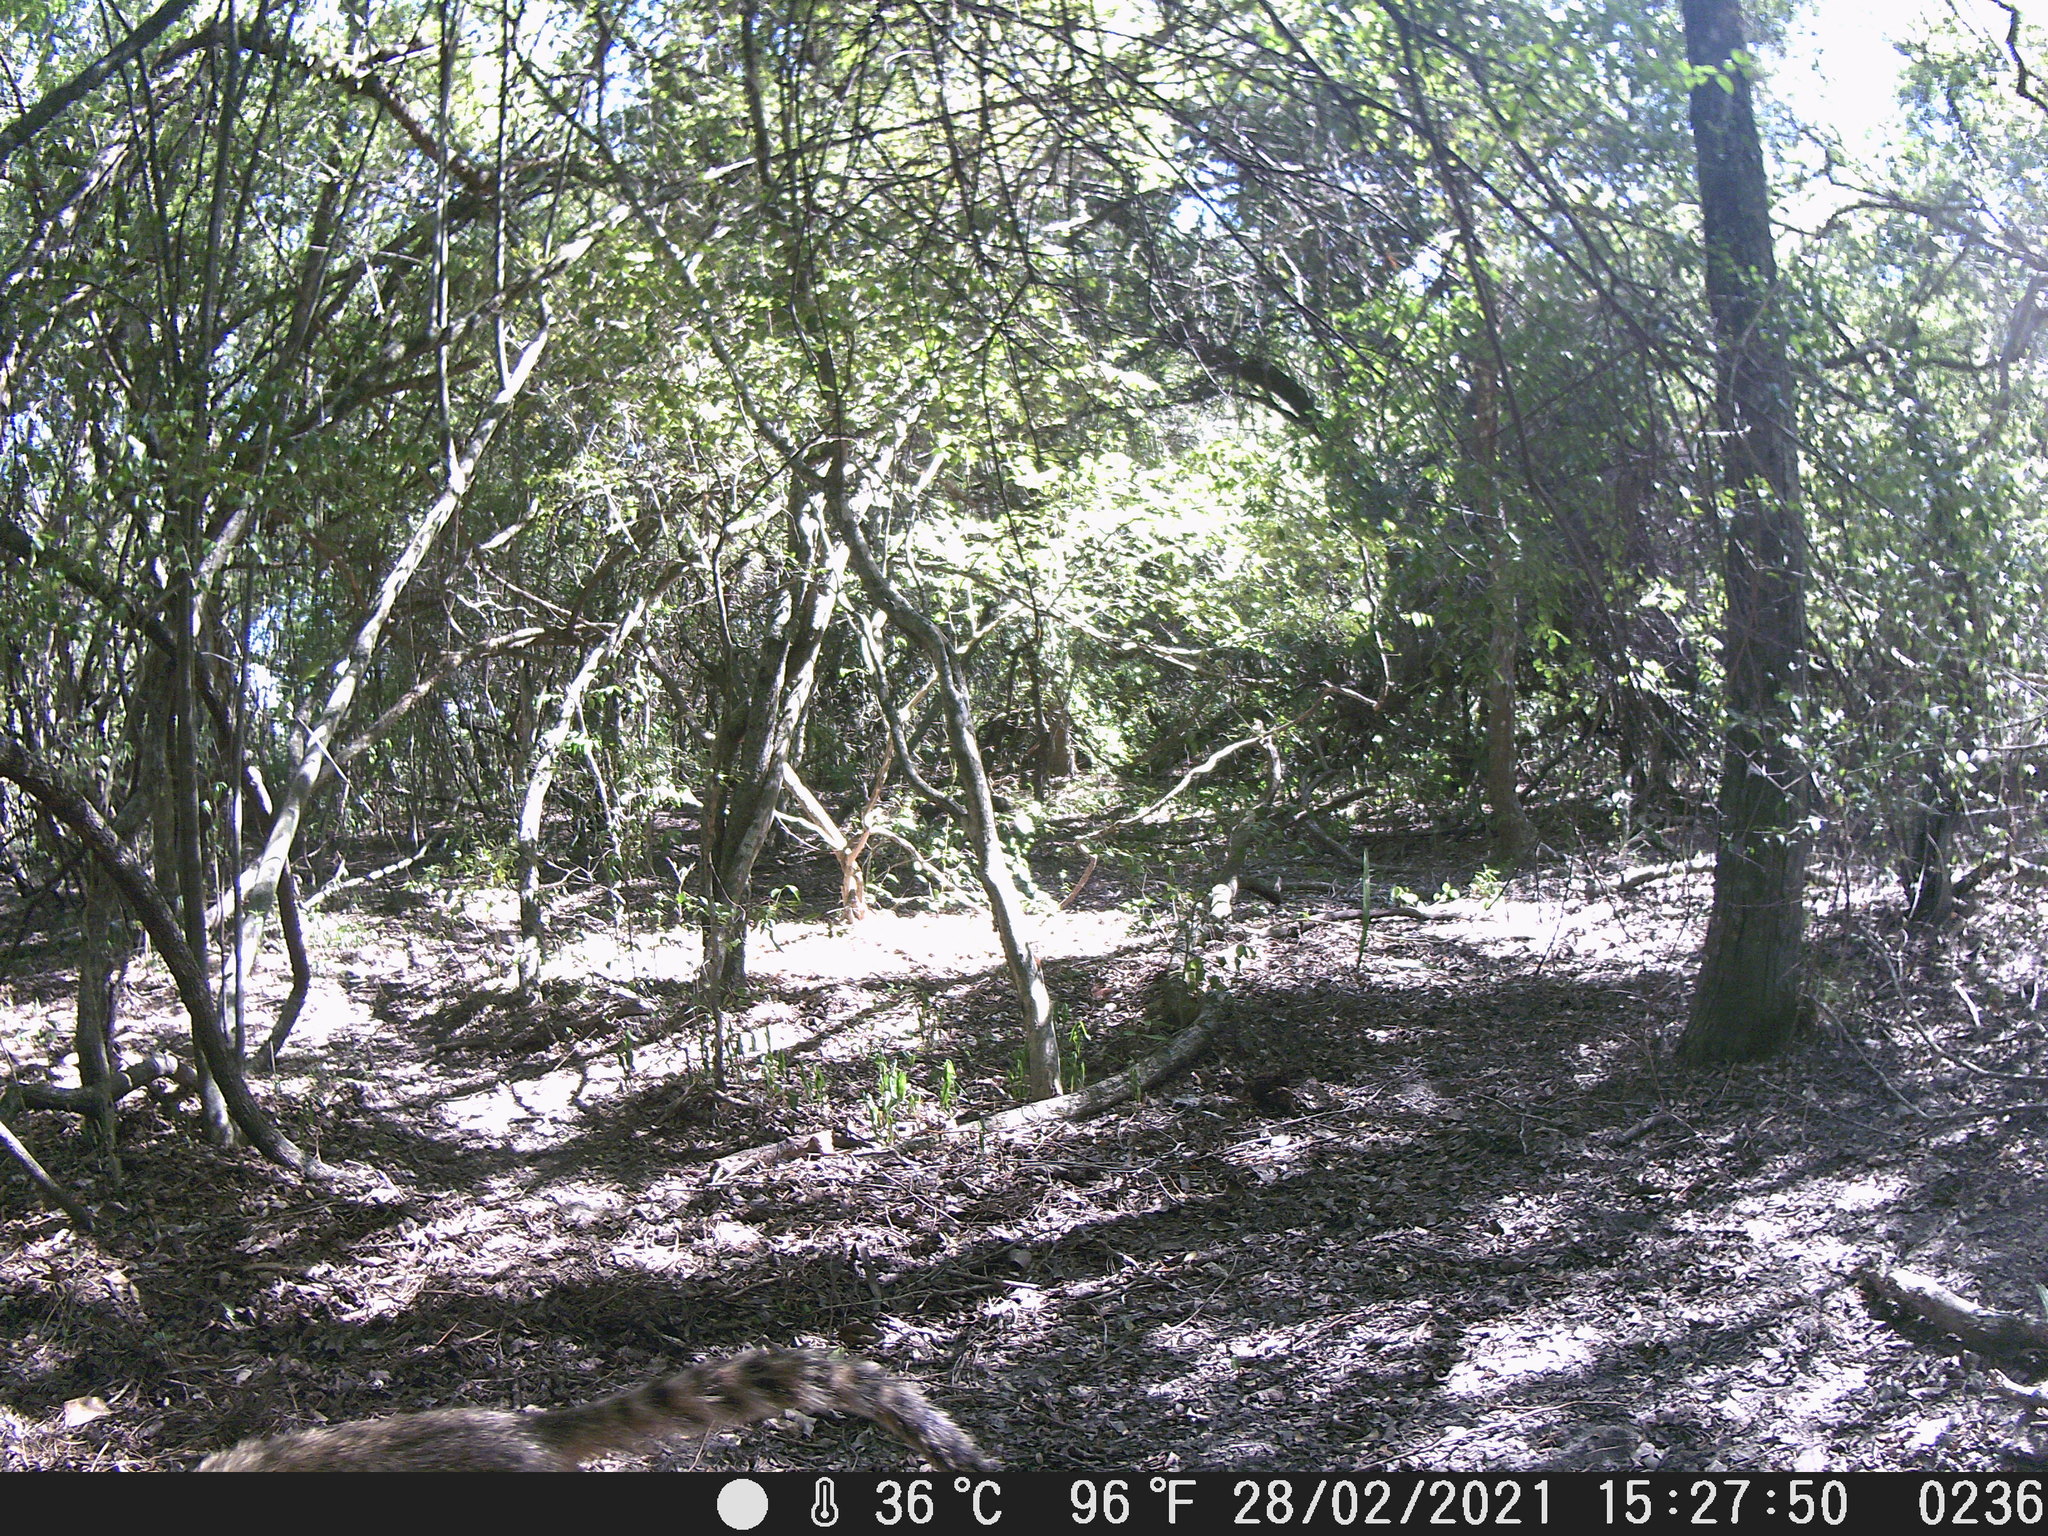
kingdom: Animalia
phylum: Chordata
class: Mammalia
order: Carnivora
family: Procyonidae
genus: Nasua
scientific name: Nasua nasua
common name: South american coati
